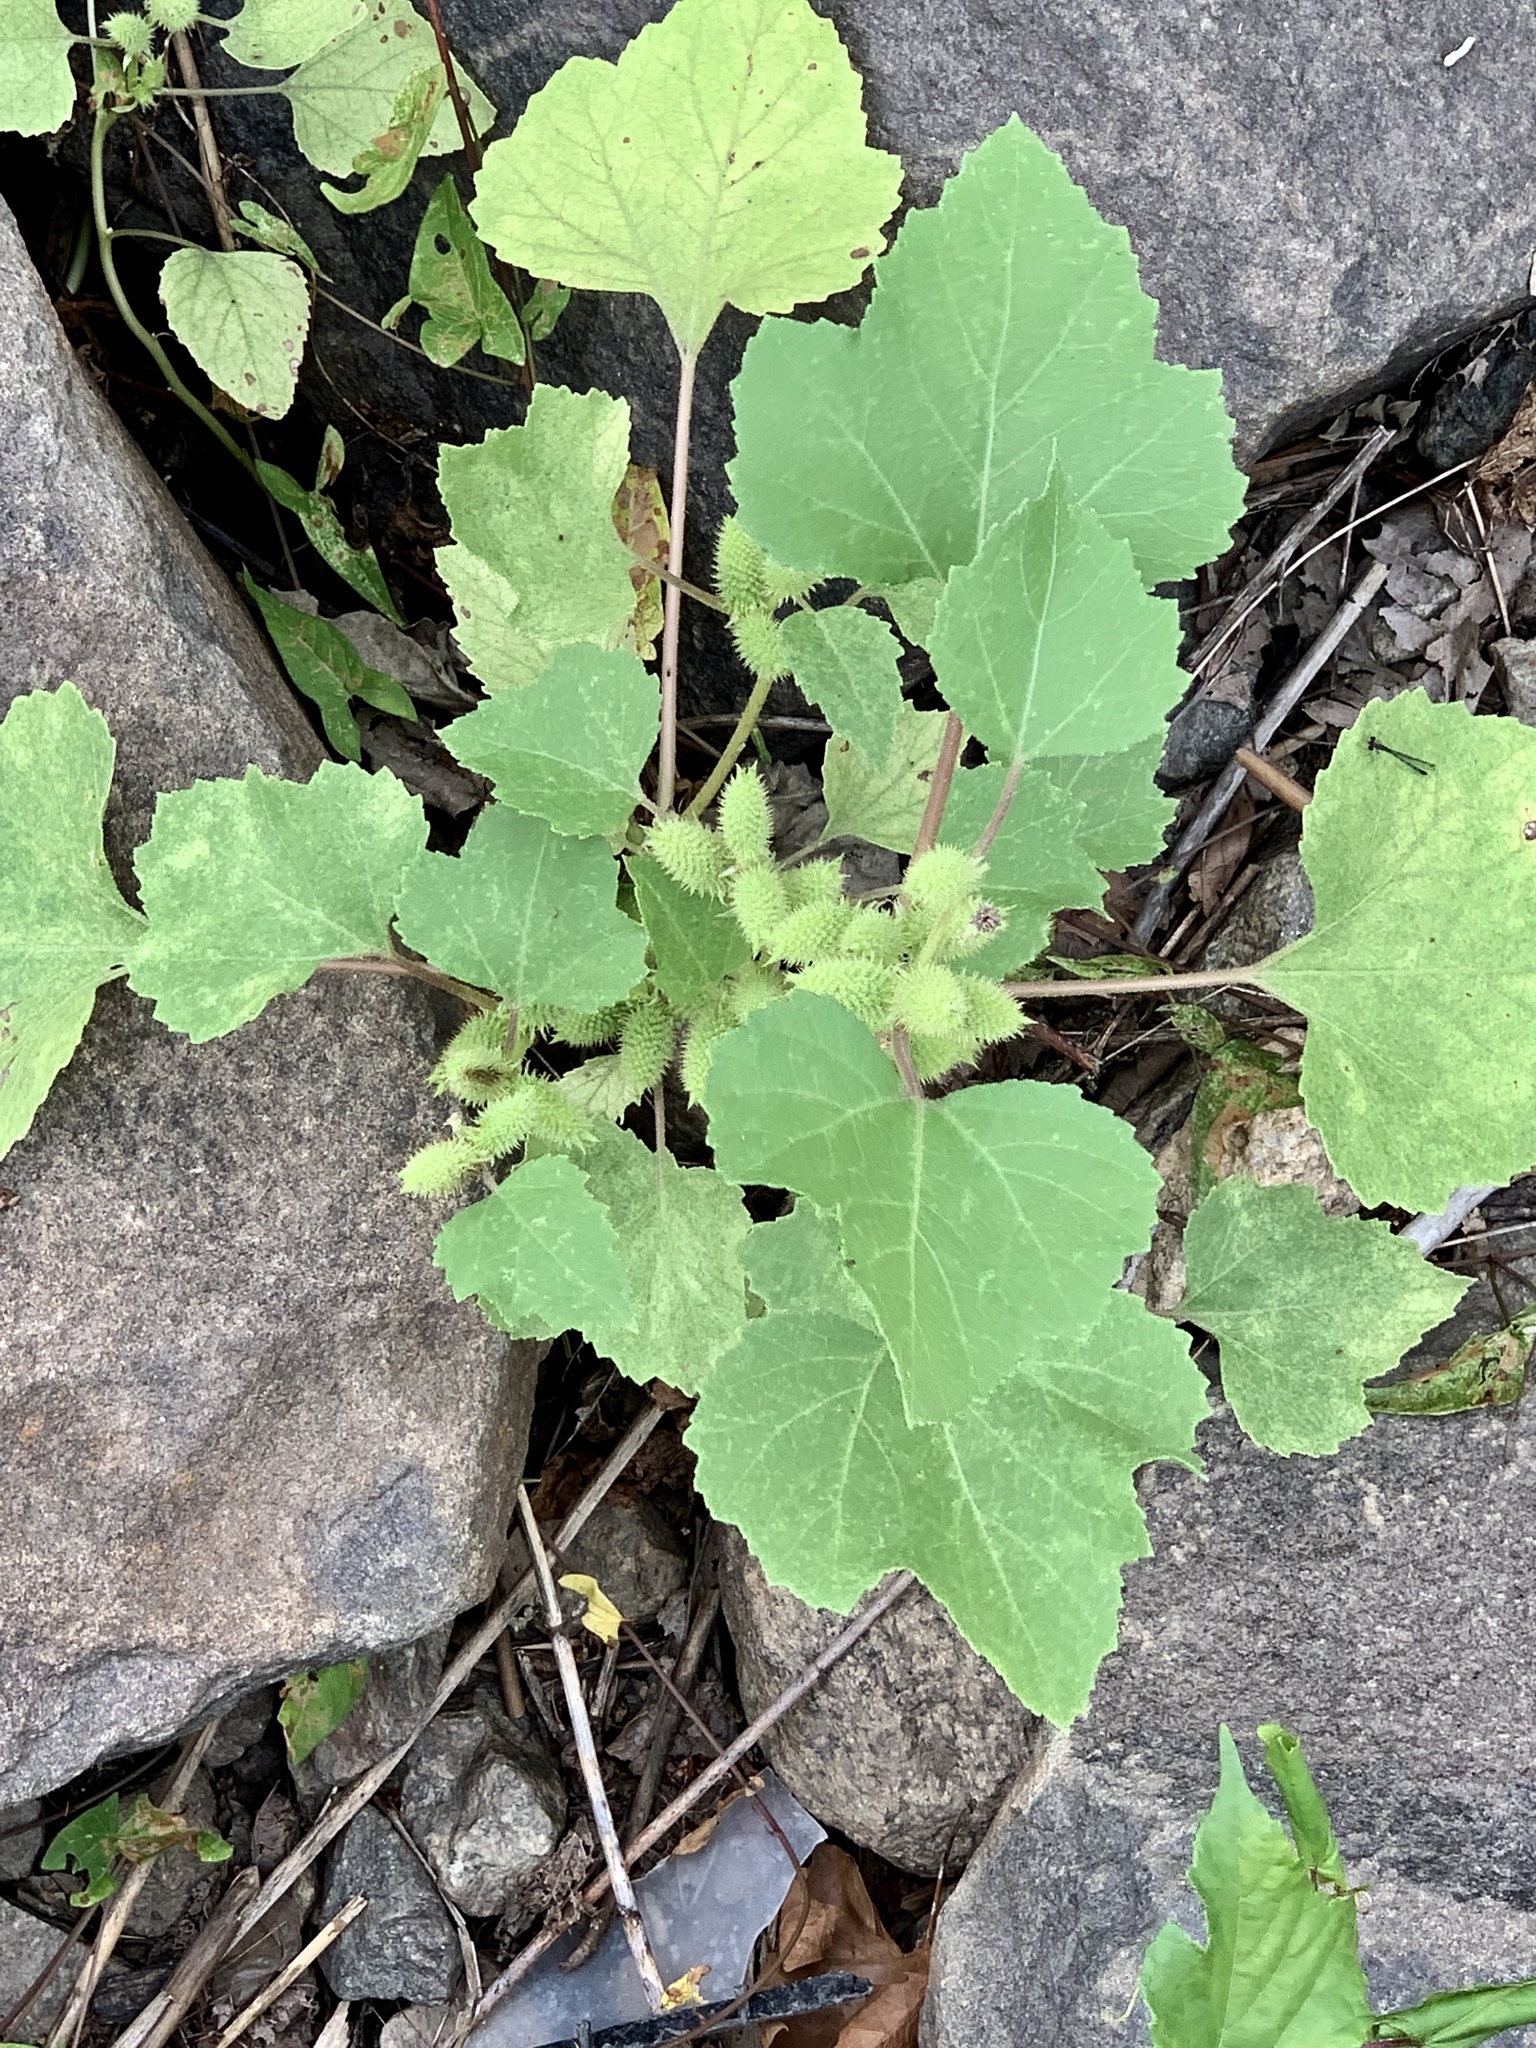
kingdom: Plantae
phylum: Tracheophyta
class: Magnoliopsida
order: Asterales
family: Asteraceae
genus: Xanthium
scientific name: Xanthium strumarium
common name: Rough cocklebur
